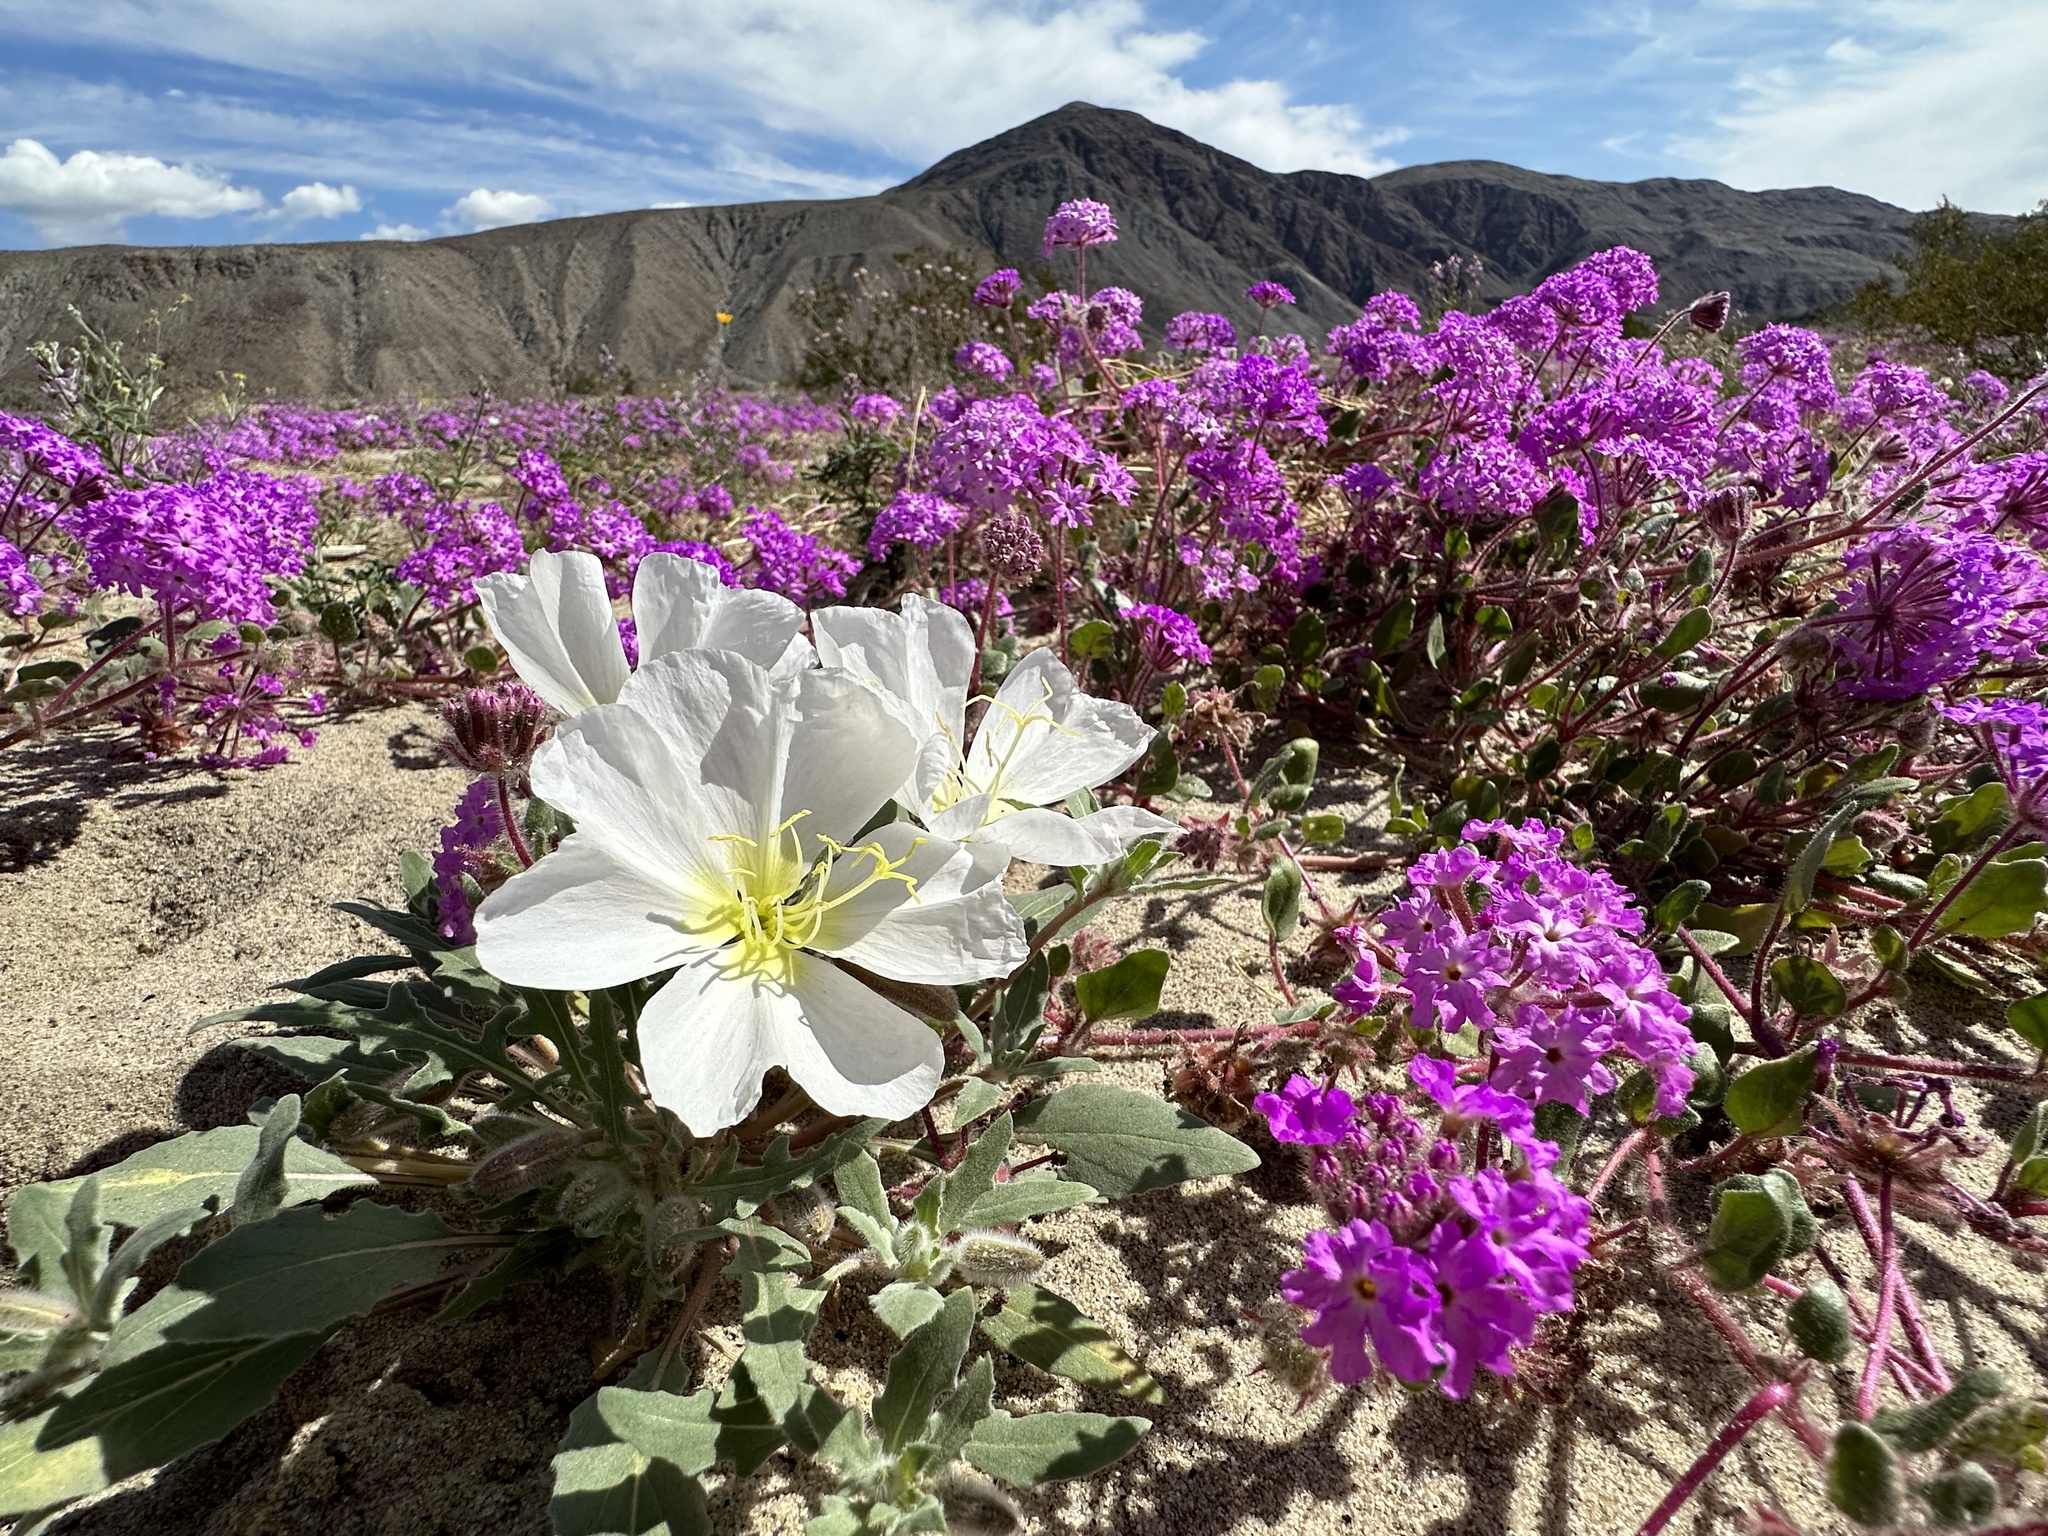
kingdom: Plantae
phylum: Tracheophyta
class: Magnoliopsida
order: Myrtales
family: Onagraceae
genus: Oenothera
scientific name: Oenothera deltoides
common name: Basket evening-primrose
